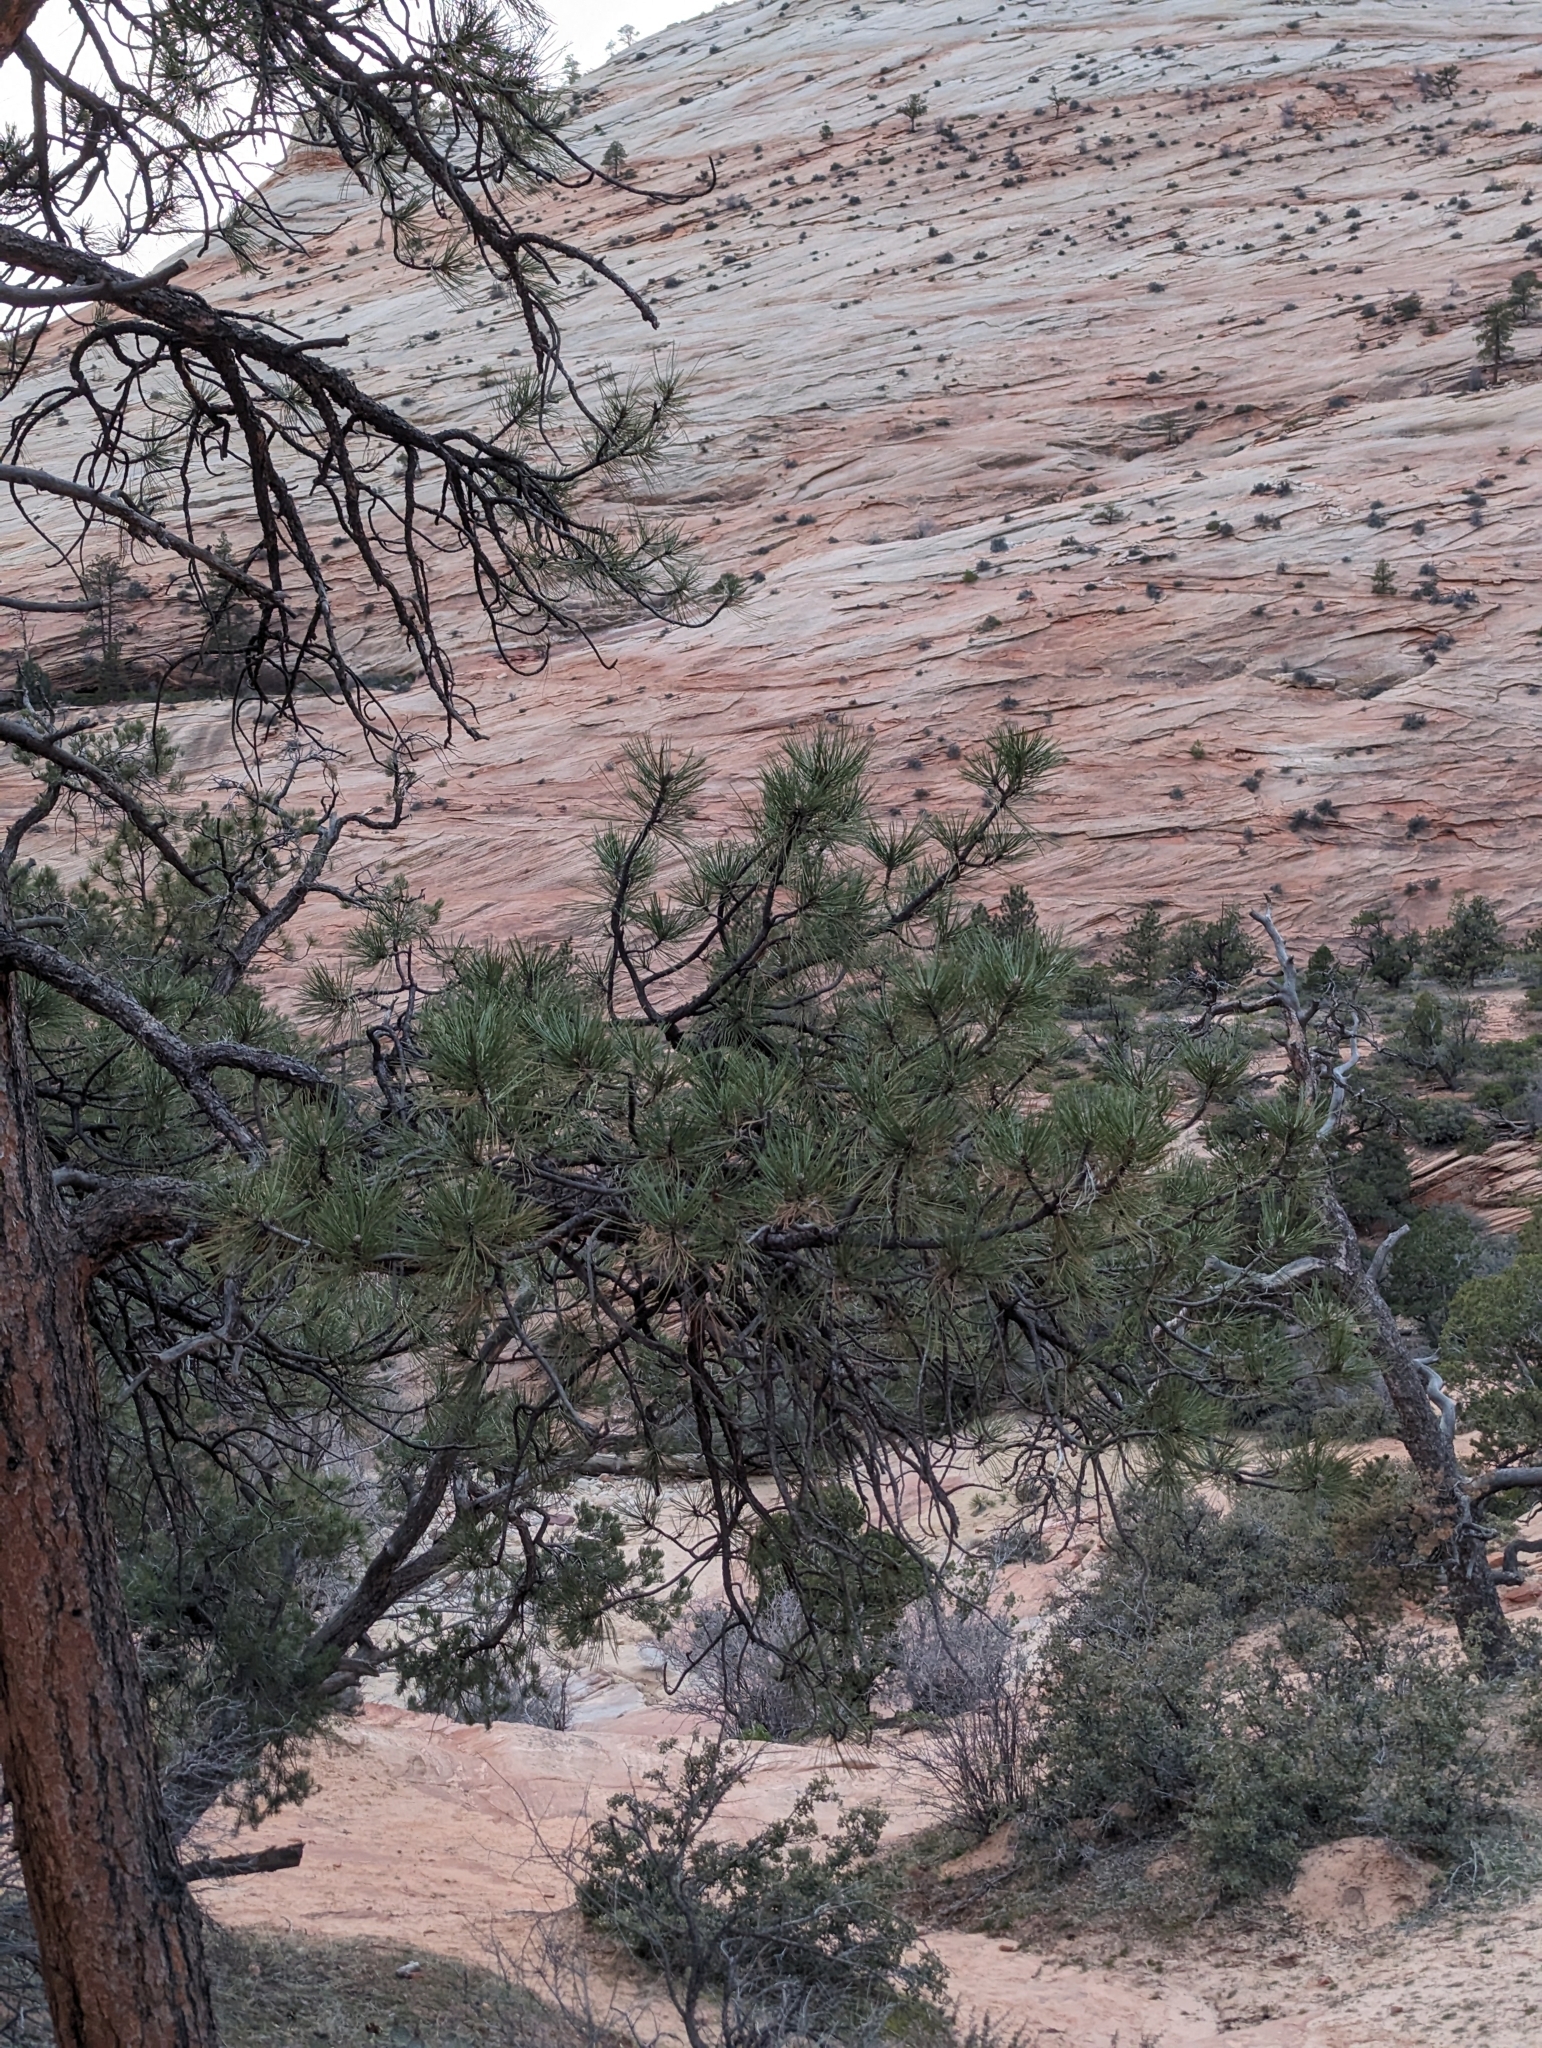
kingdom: Plantae
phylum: Tracheophyta
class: Pinopsida
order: Pinales
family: Pinaceae
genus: Pinus
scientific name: Pinus ponderosa
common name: Western yellow-pine
